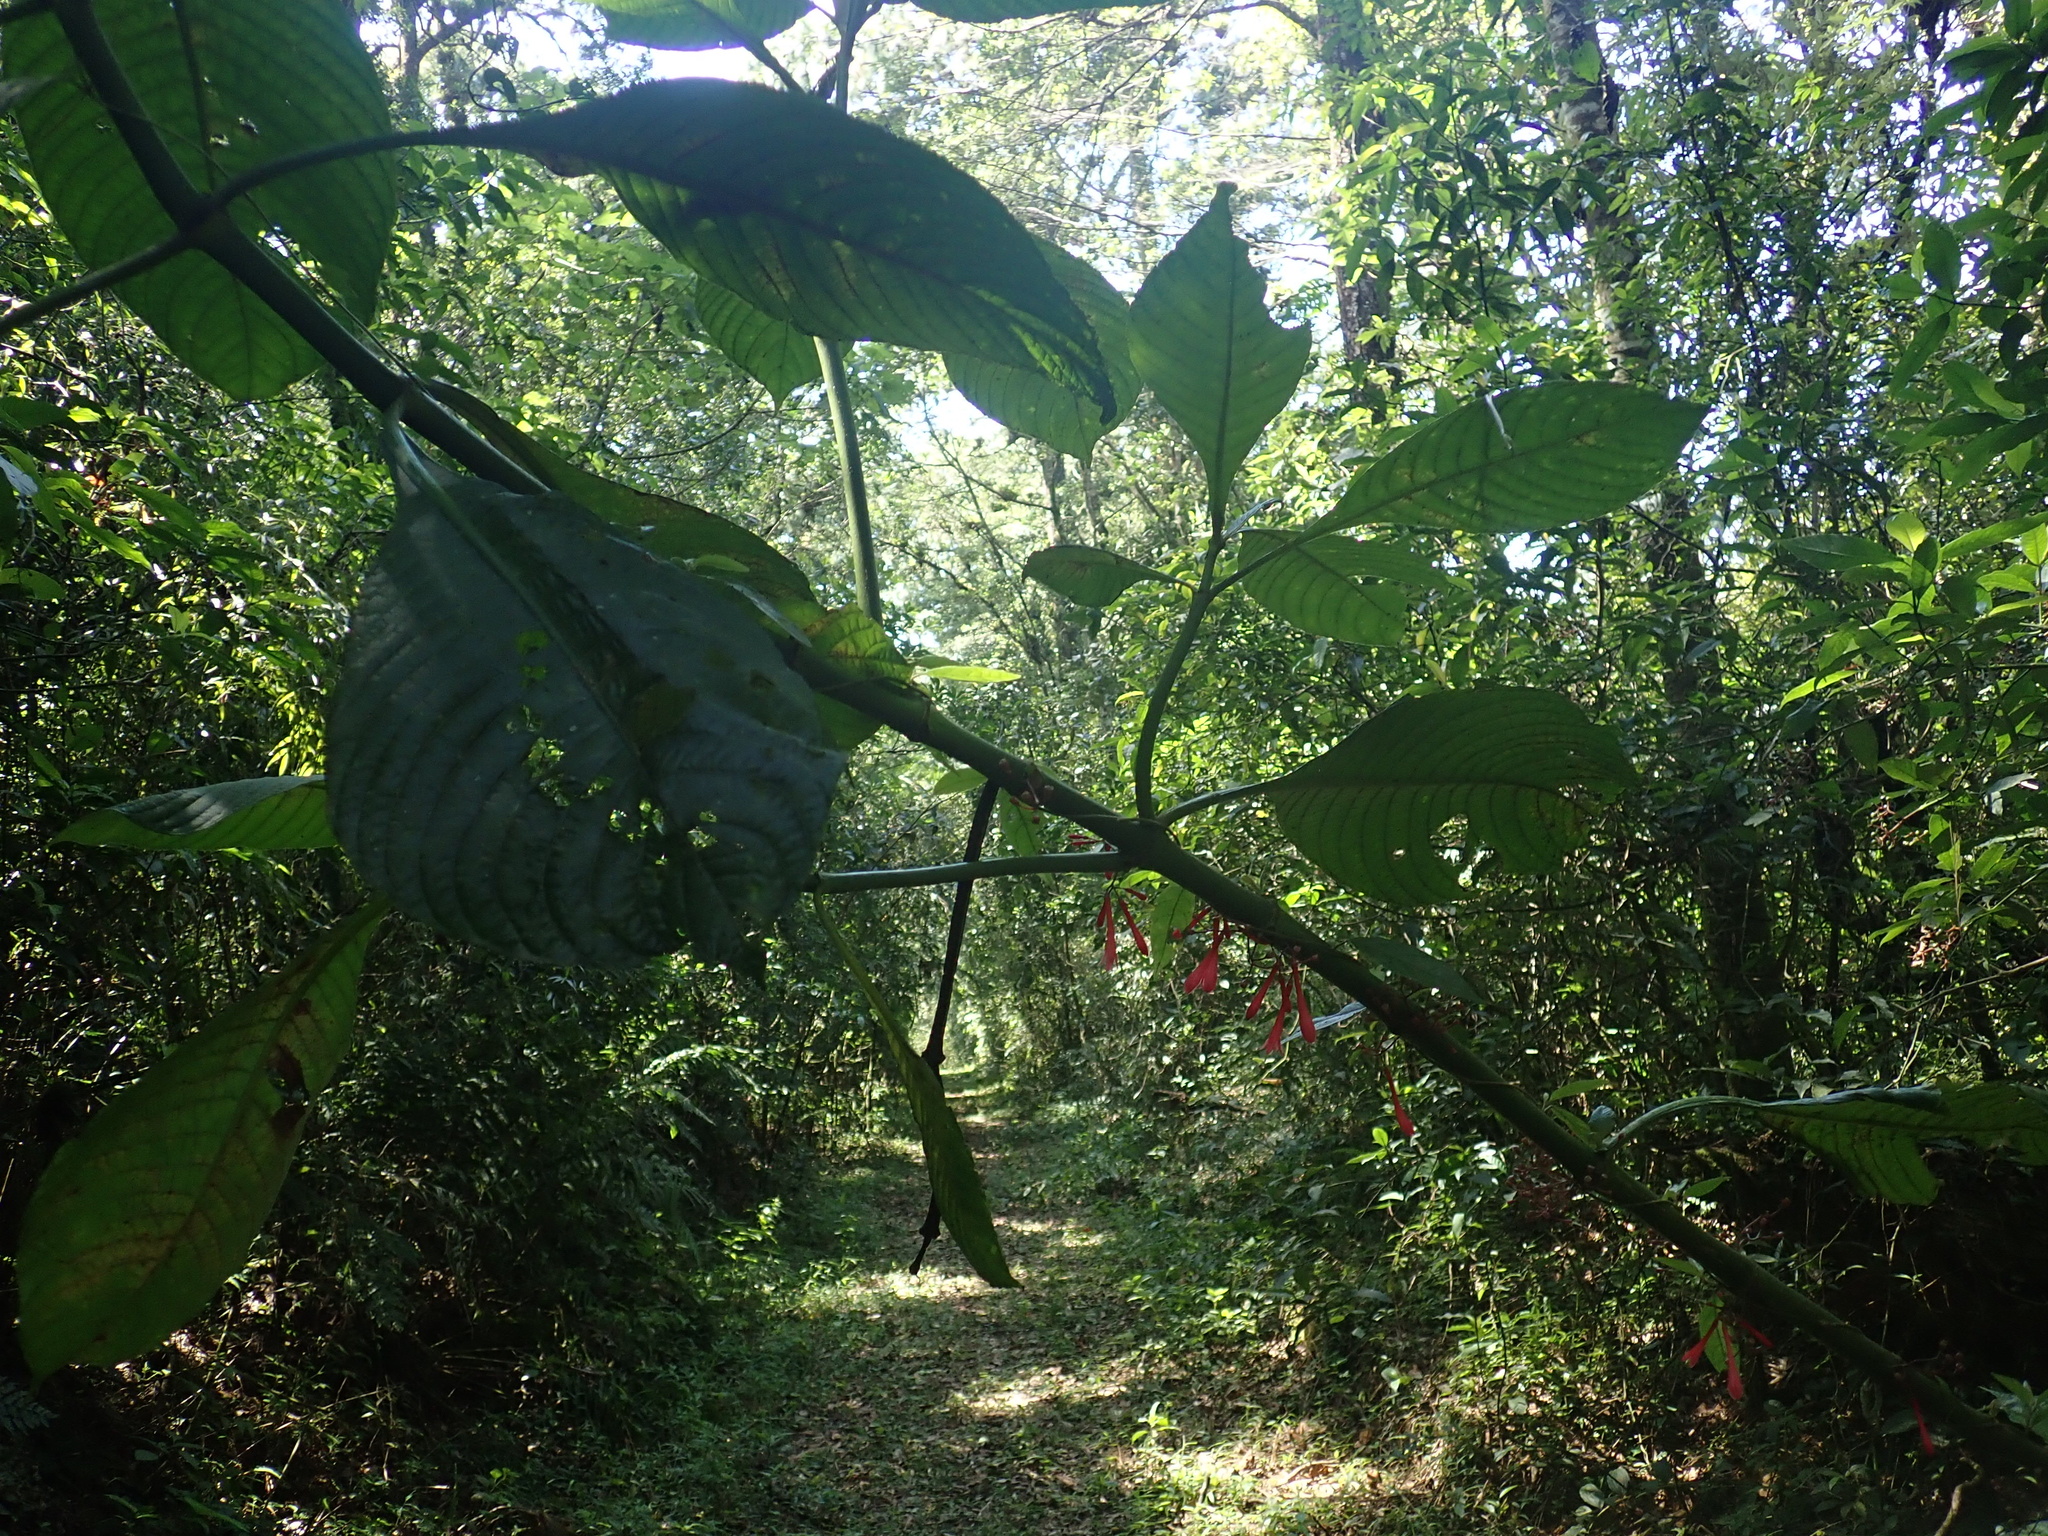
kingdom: Plantae
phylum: Tracheophyta
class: Magnoliopsida
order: Gentianales
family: Rubiaceae
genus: Hoffmannia
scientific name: Hoffmannia cauliflora
